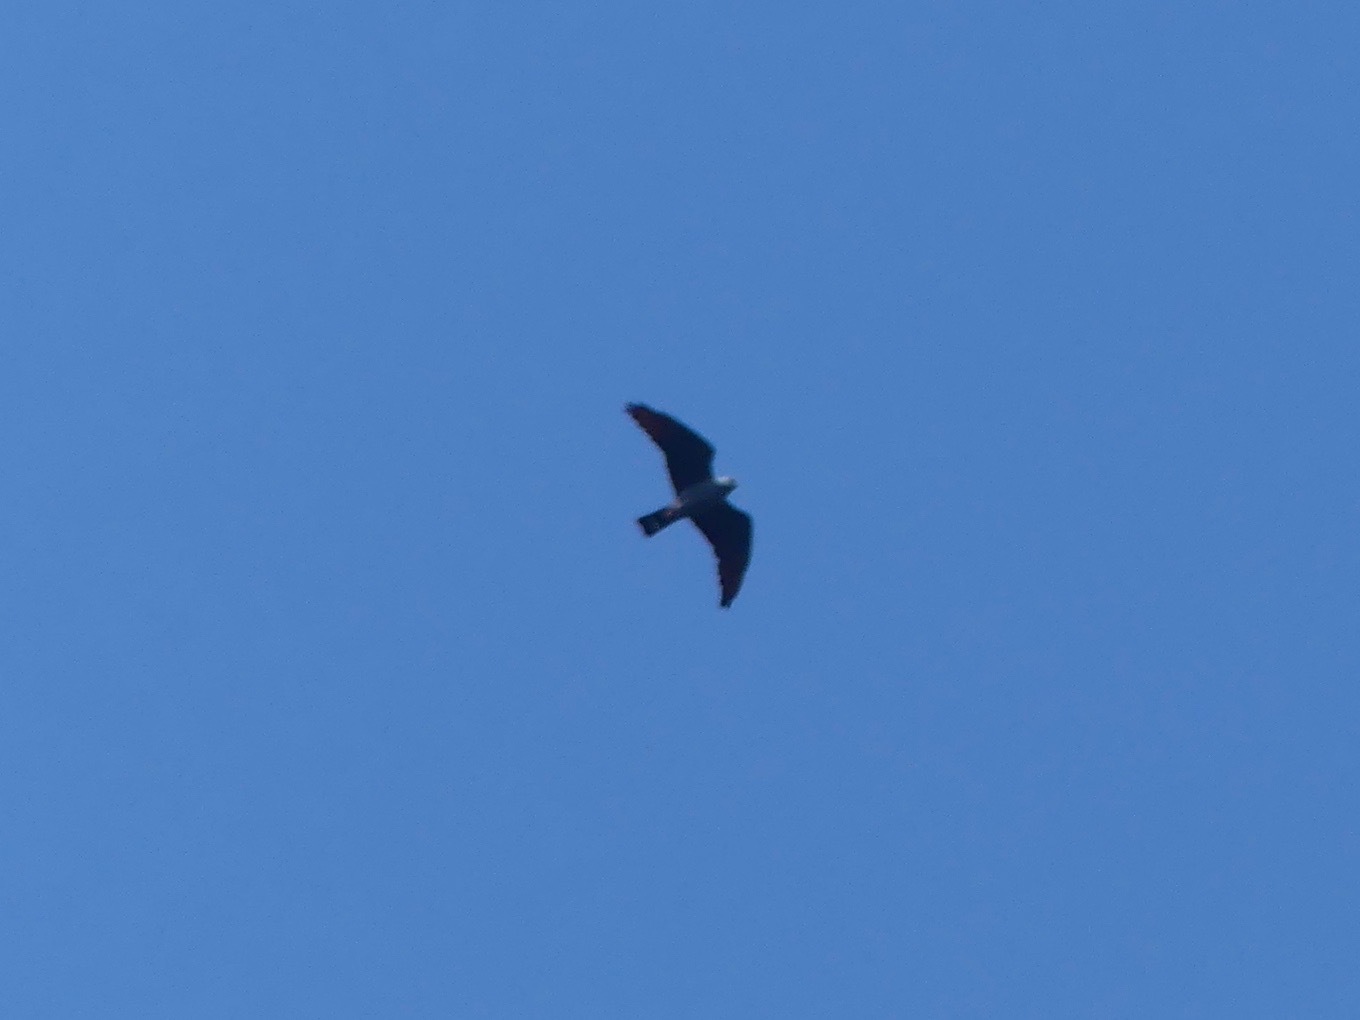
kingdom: Animalia
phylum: Chordata
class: Aves
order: Accipitriformes
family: Accipitridae
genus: Ictinia
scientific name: Ictinia plumbea
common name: Plumbeous kite
